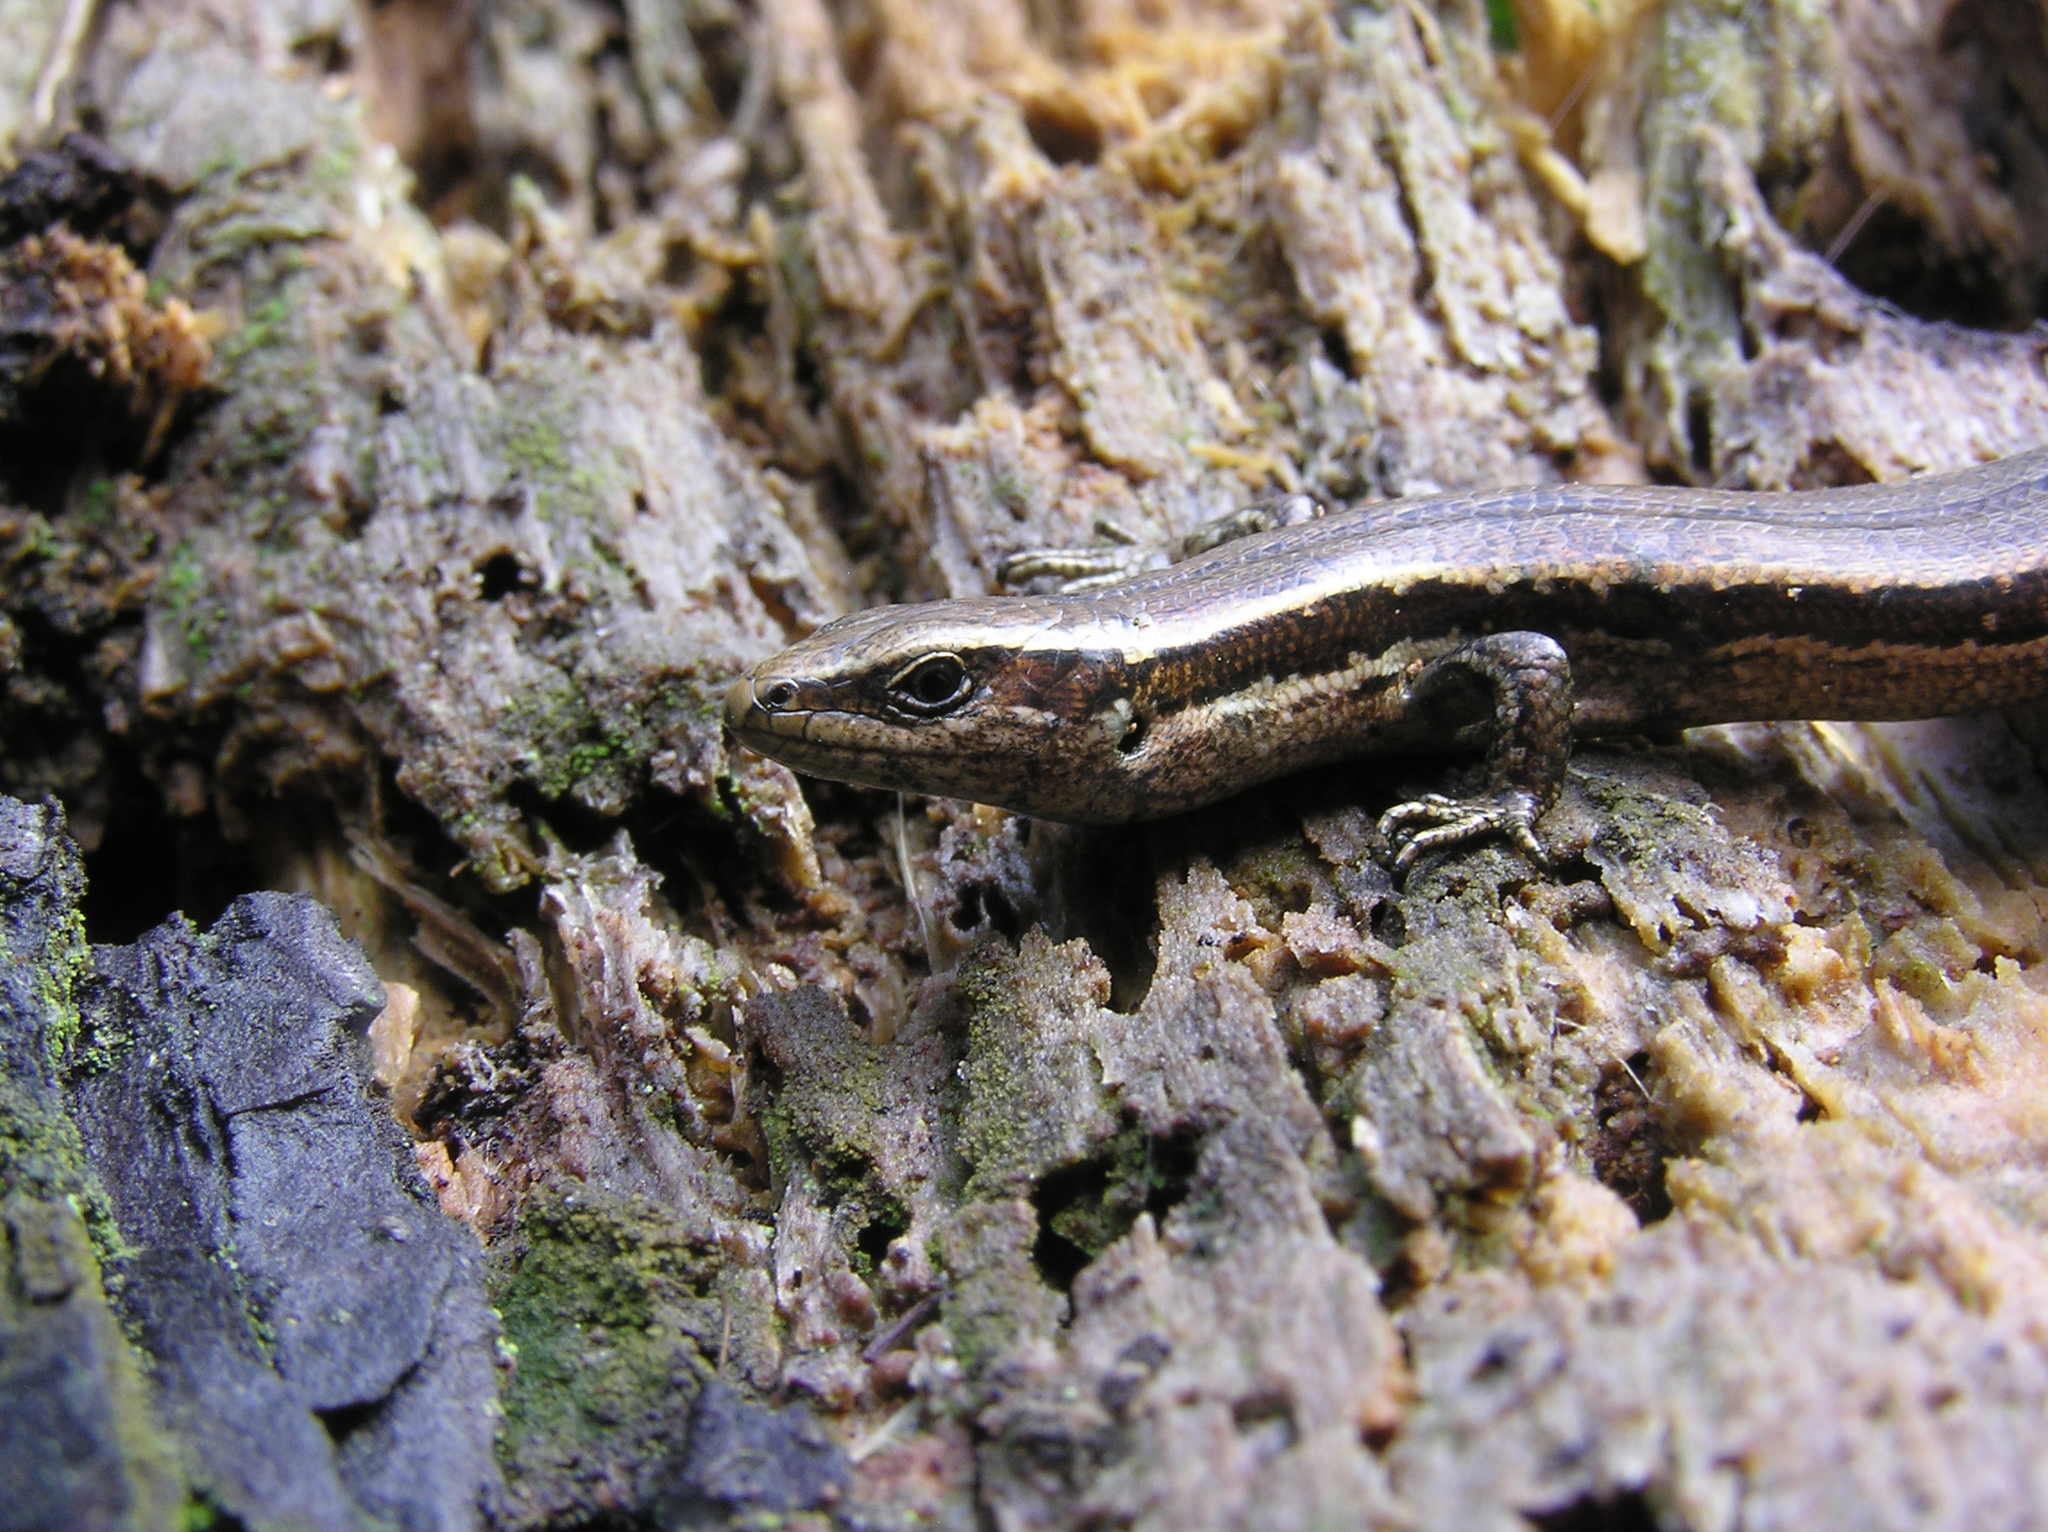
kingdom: Animalia
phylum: Chordata
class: Squamata
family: Scincidae
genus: Oligosoma
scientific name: Oligosoma polychroma
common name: Common new zealand skink
